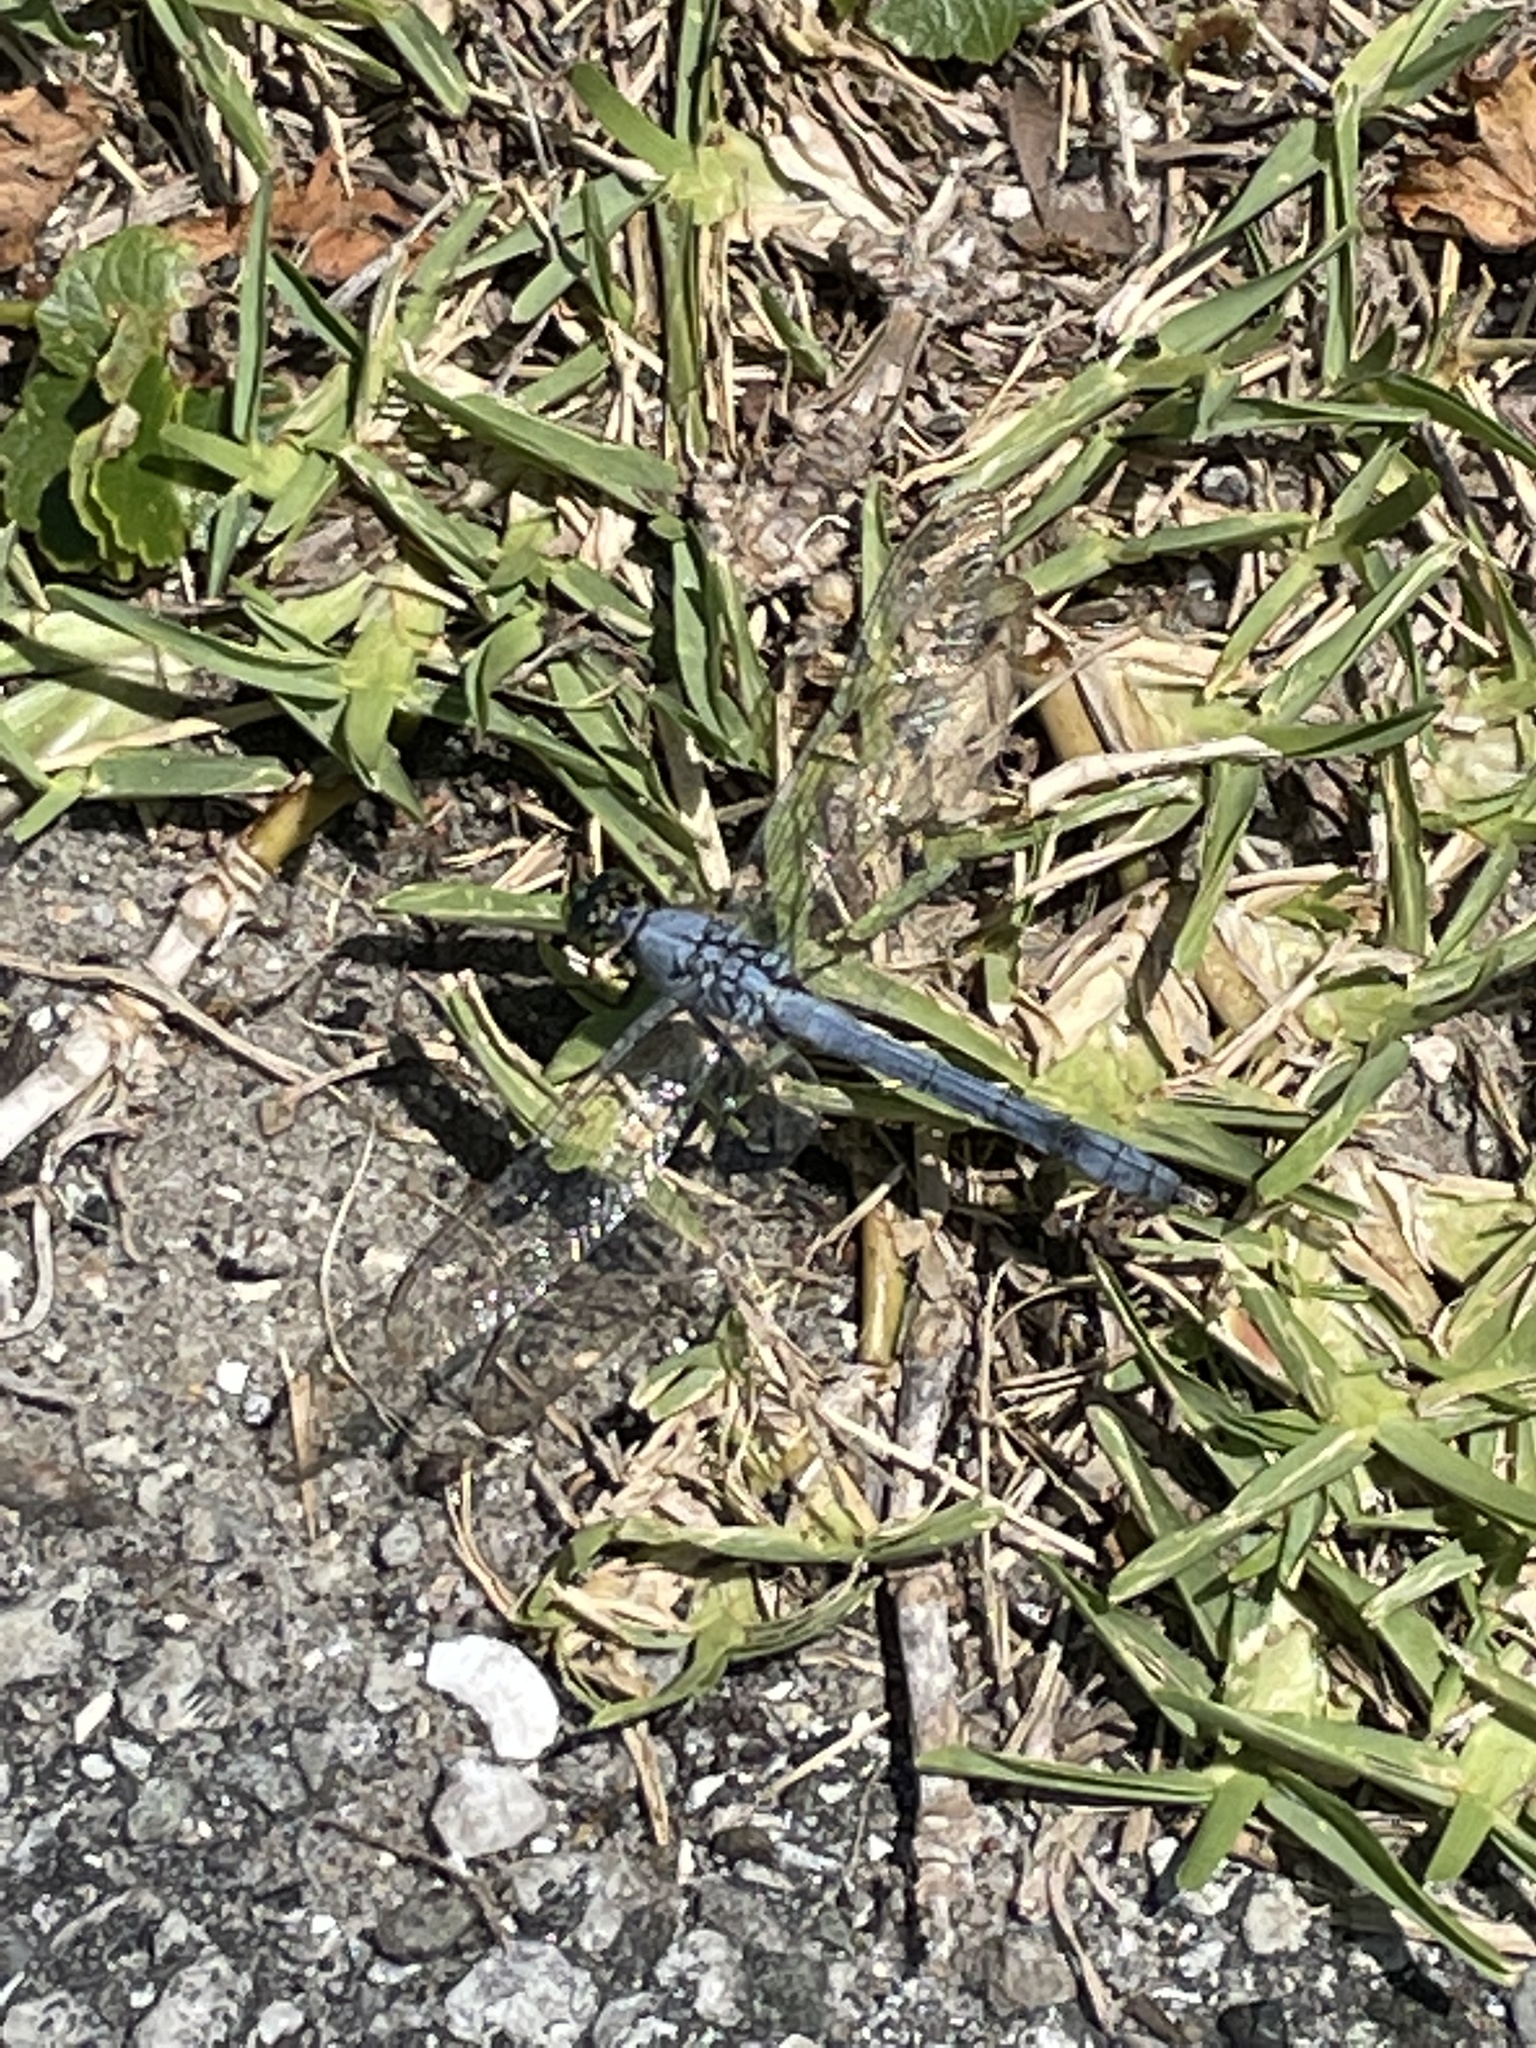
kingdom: Animalia
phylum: Arthropoda
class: Insecta
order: Odonata
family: Libellulidae
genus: Erythemis
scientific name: Erythemis simplicicollis
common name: Eastern pondhawk
